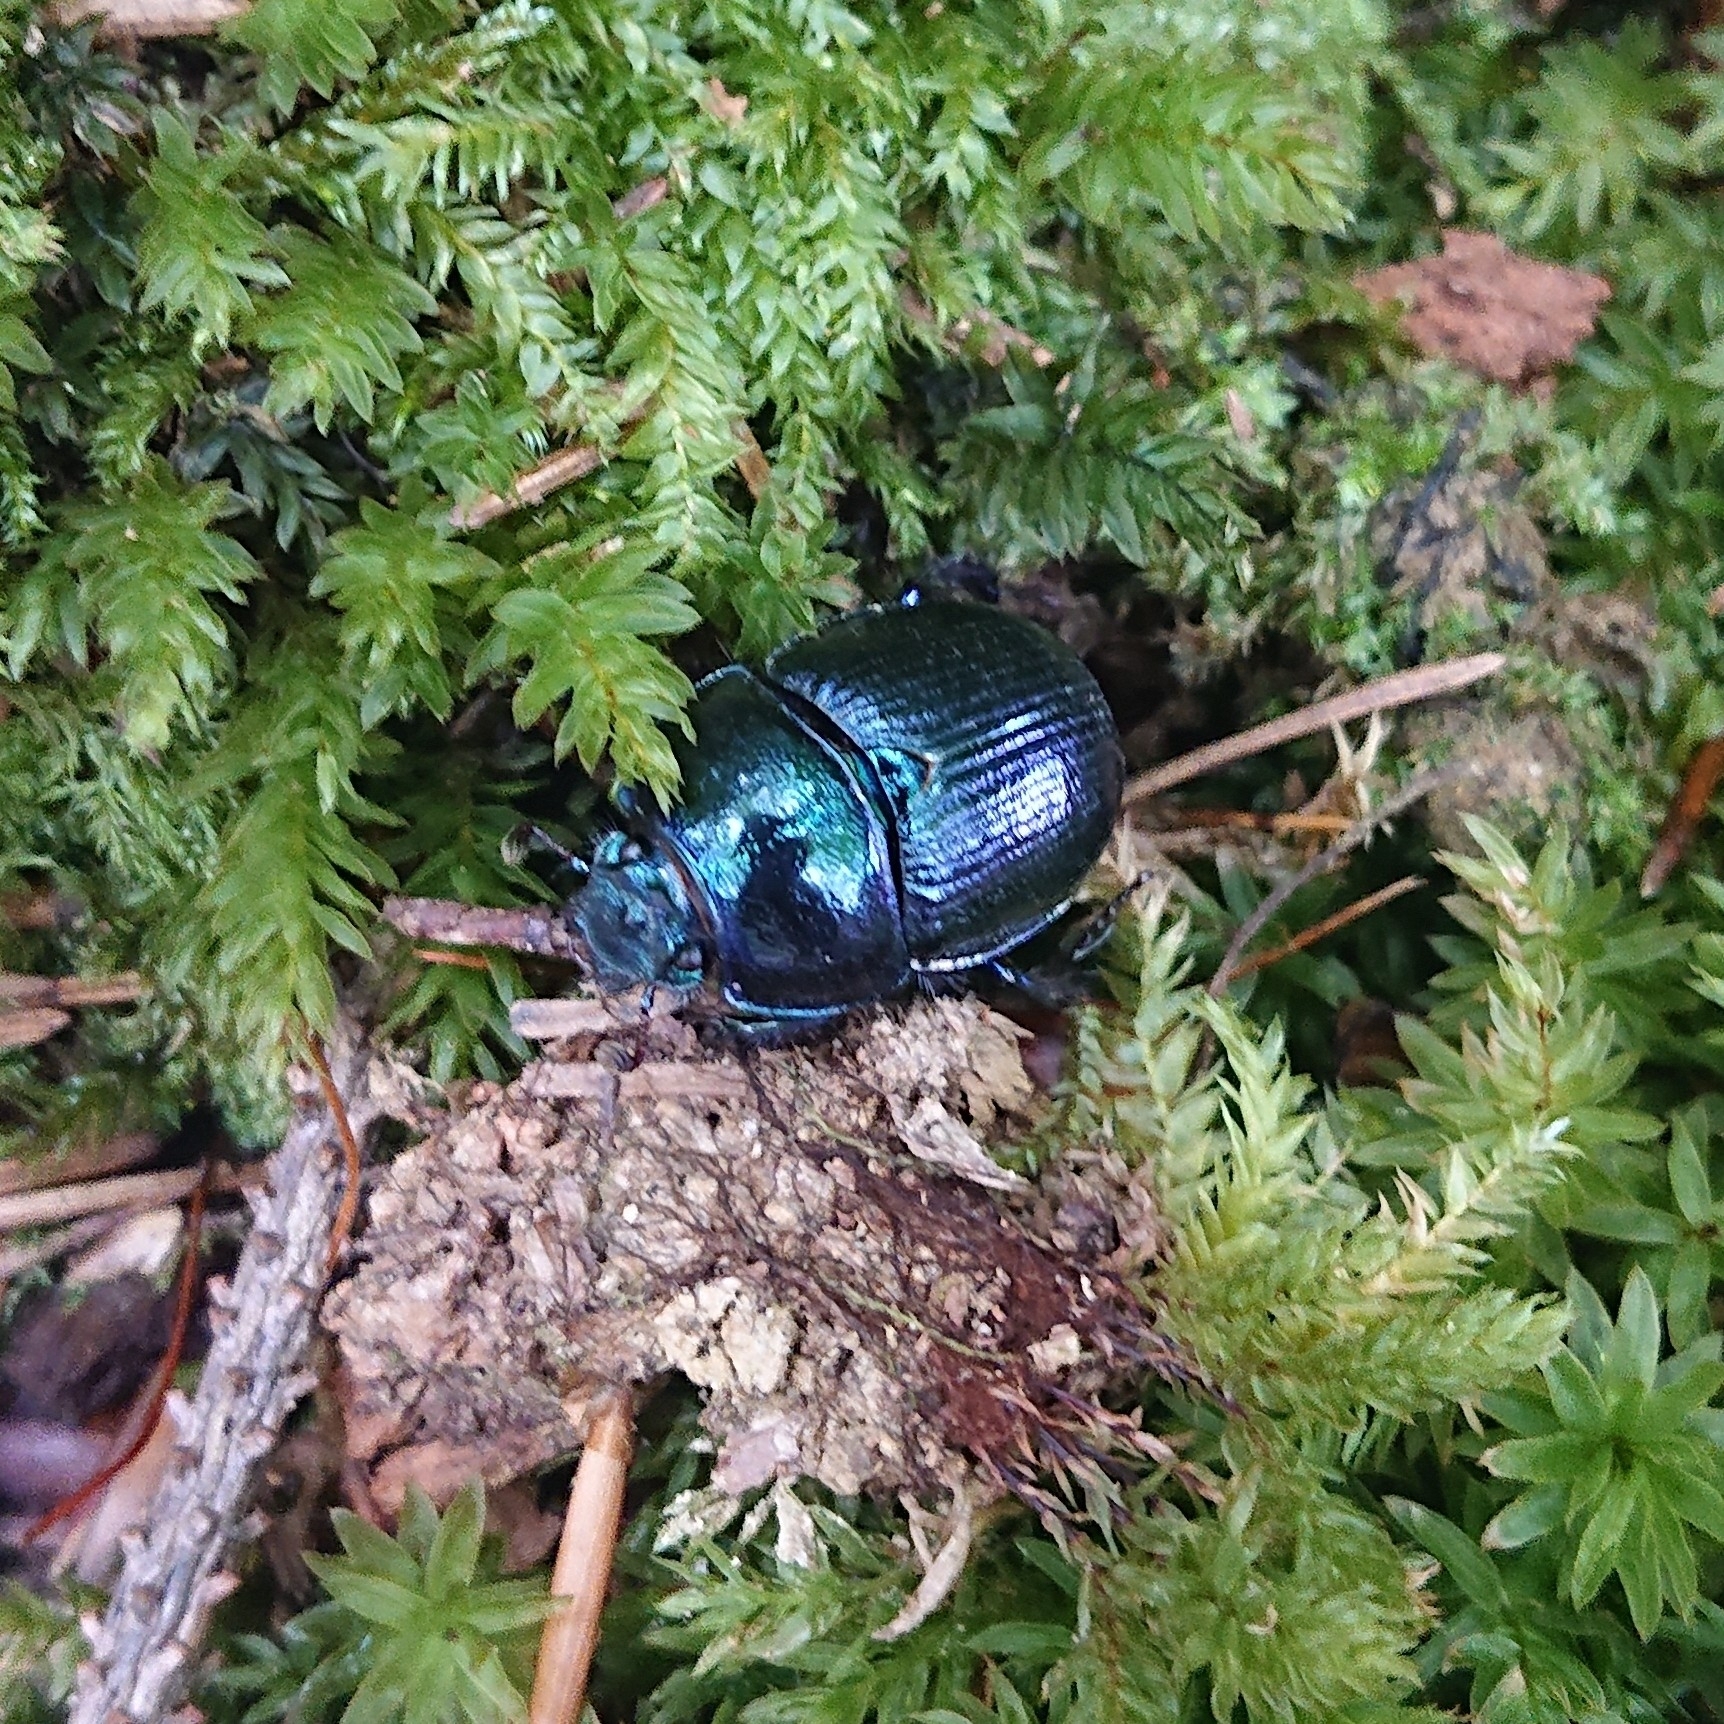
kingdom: Animalia
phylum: Arthropoda
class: Insecta
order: Coleoptera
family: Geotrupidae
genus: Anoplotrupes
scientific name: Anoplotrupes stercorosus
